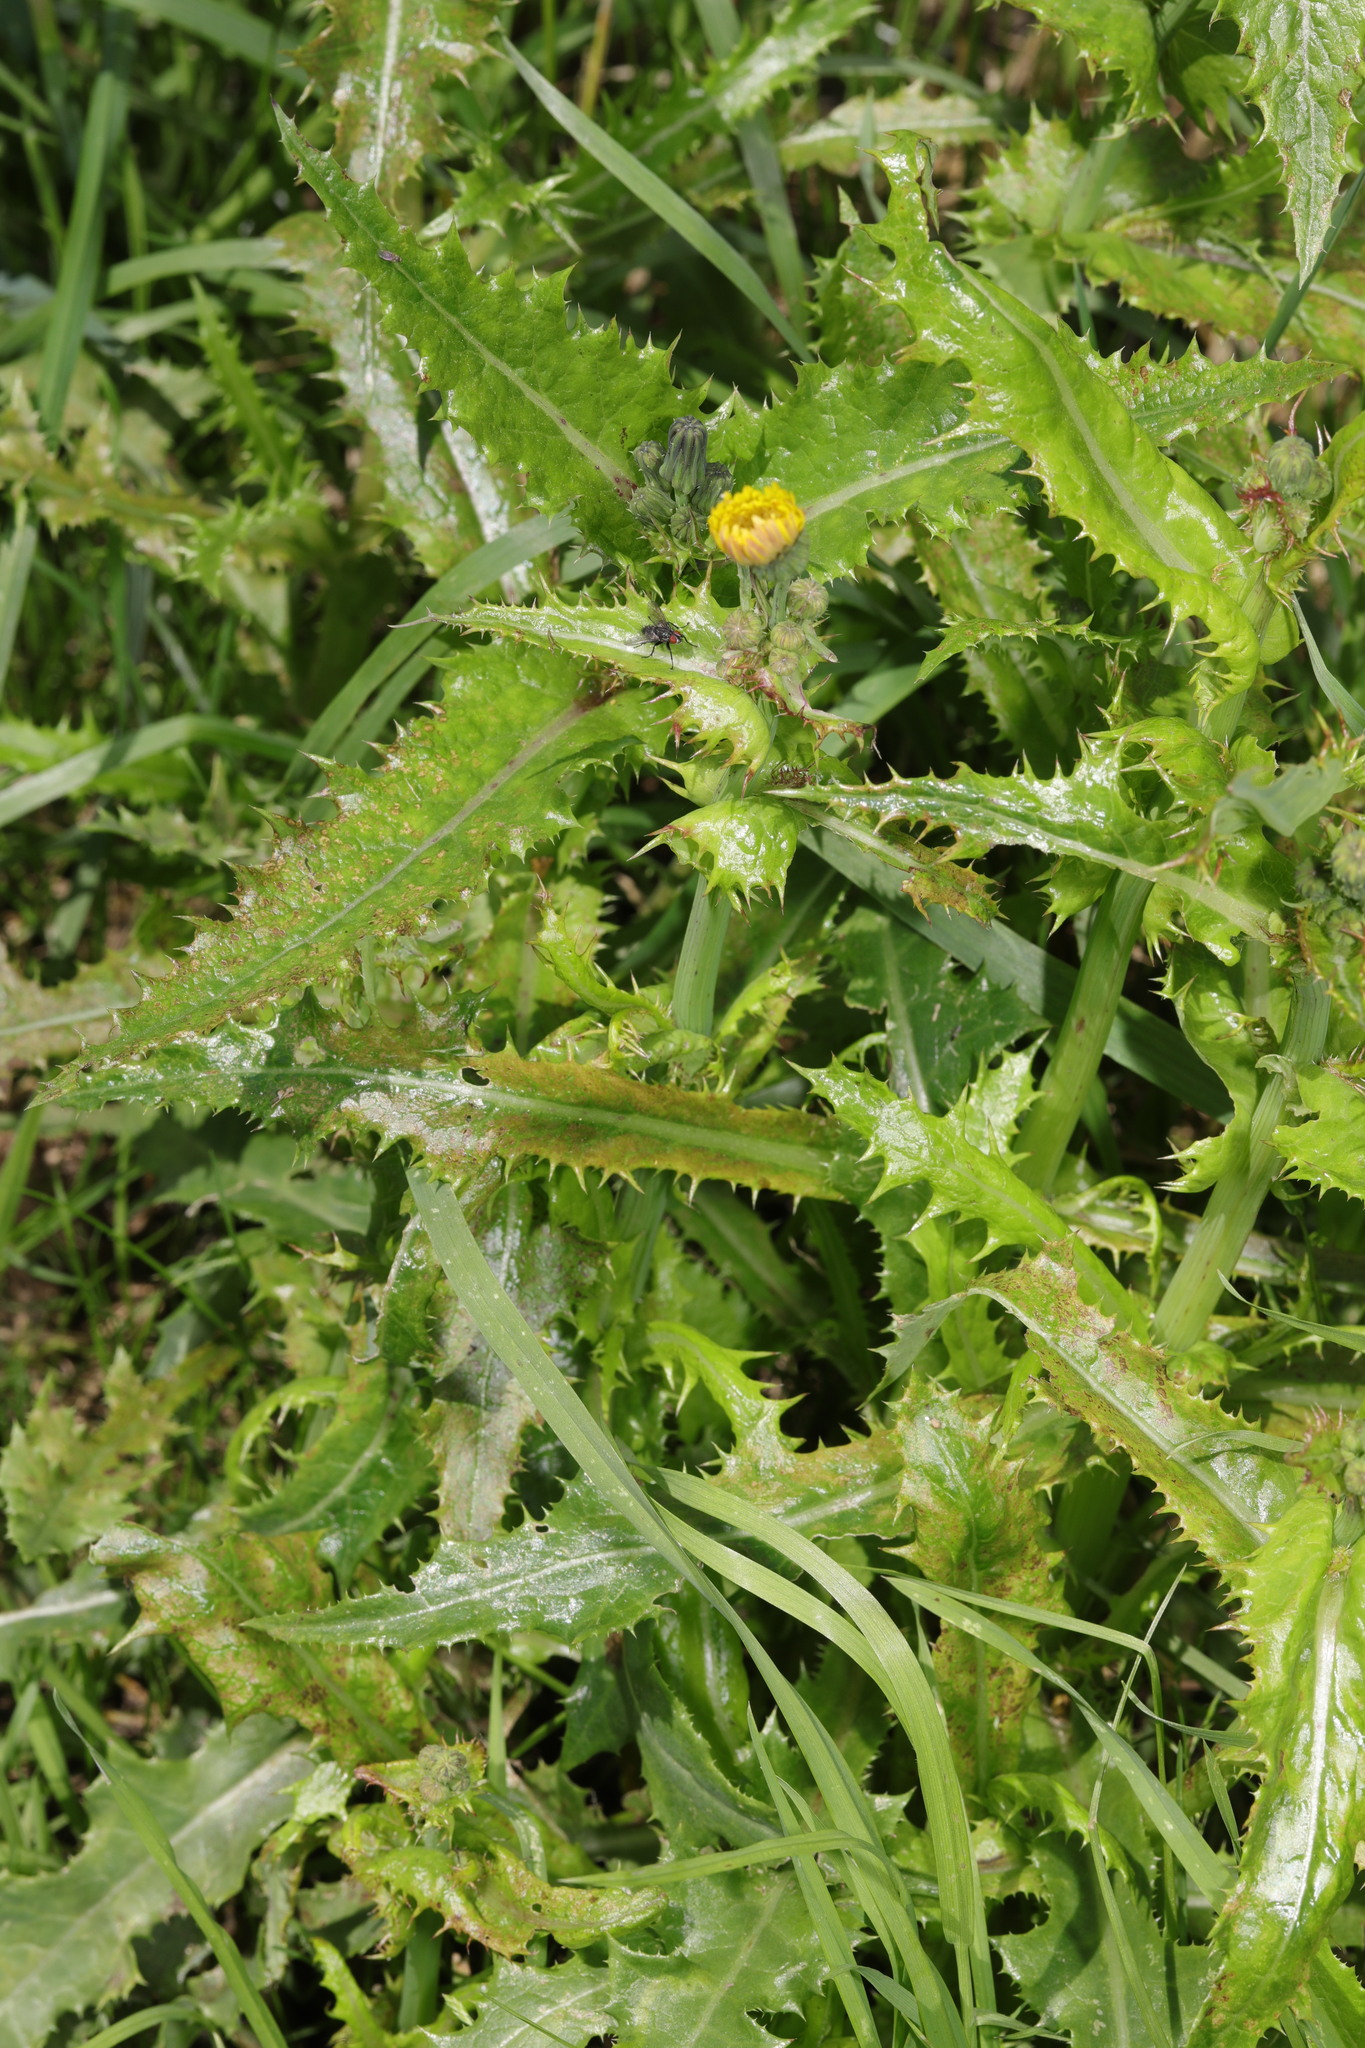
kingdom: Plantae
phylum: Tracheophyta
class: Magnoliopsida
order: Asterales
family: Asteraceae
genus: Sonchus
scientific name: Sonchus asper
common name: Prickly sow-thistle
